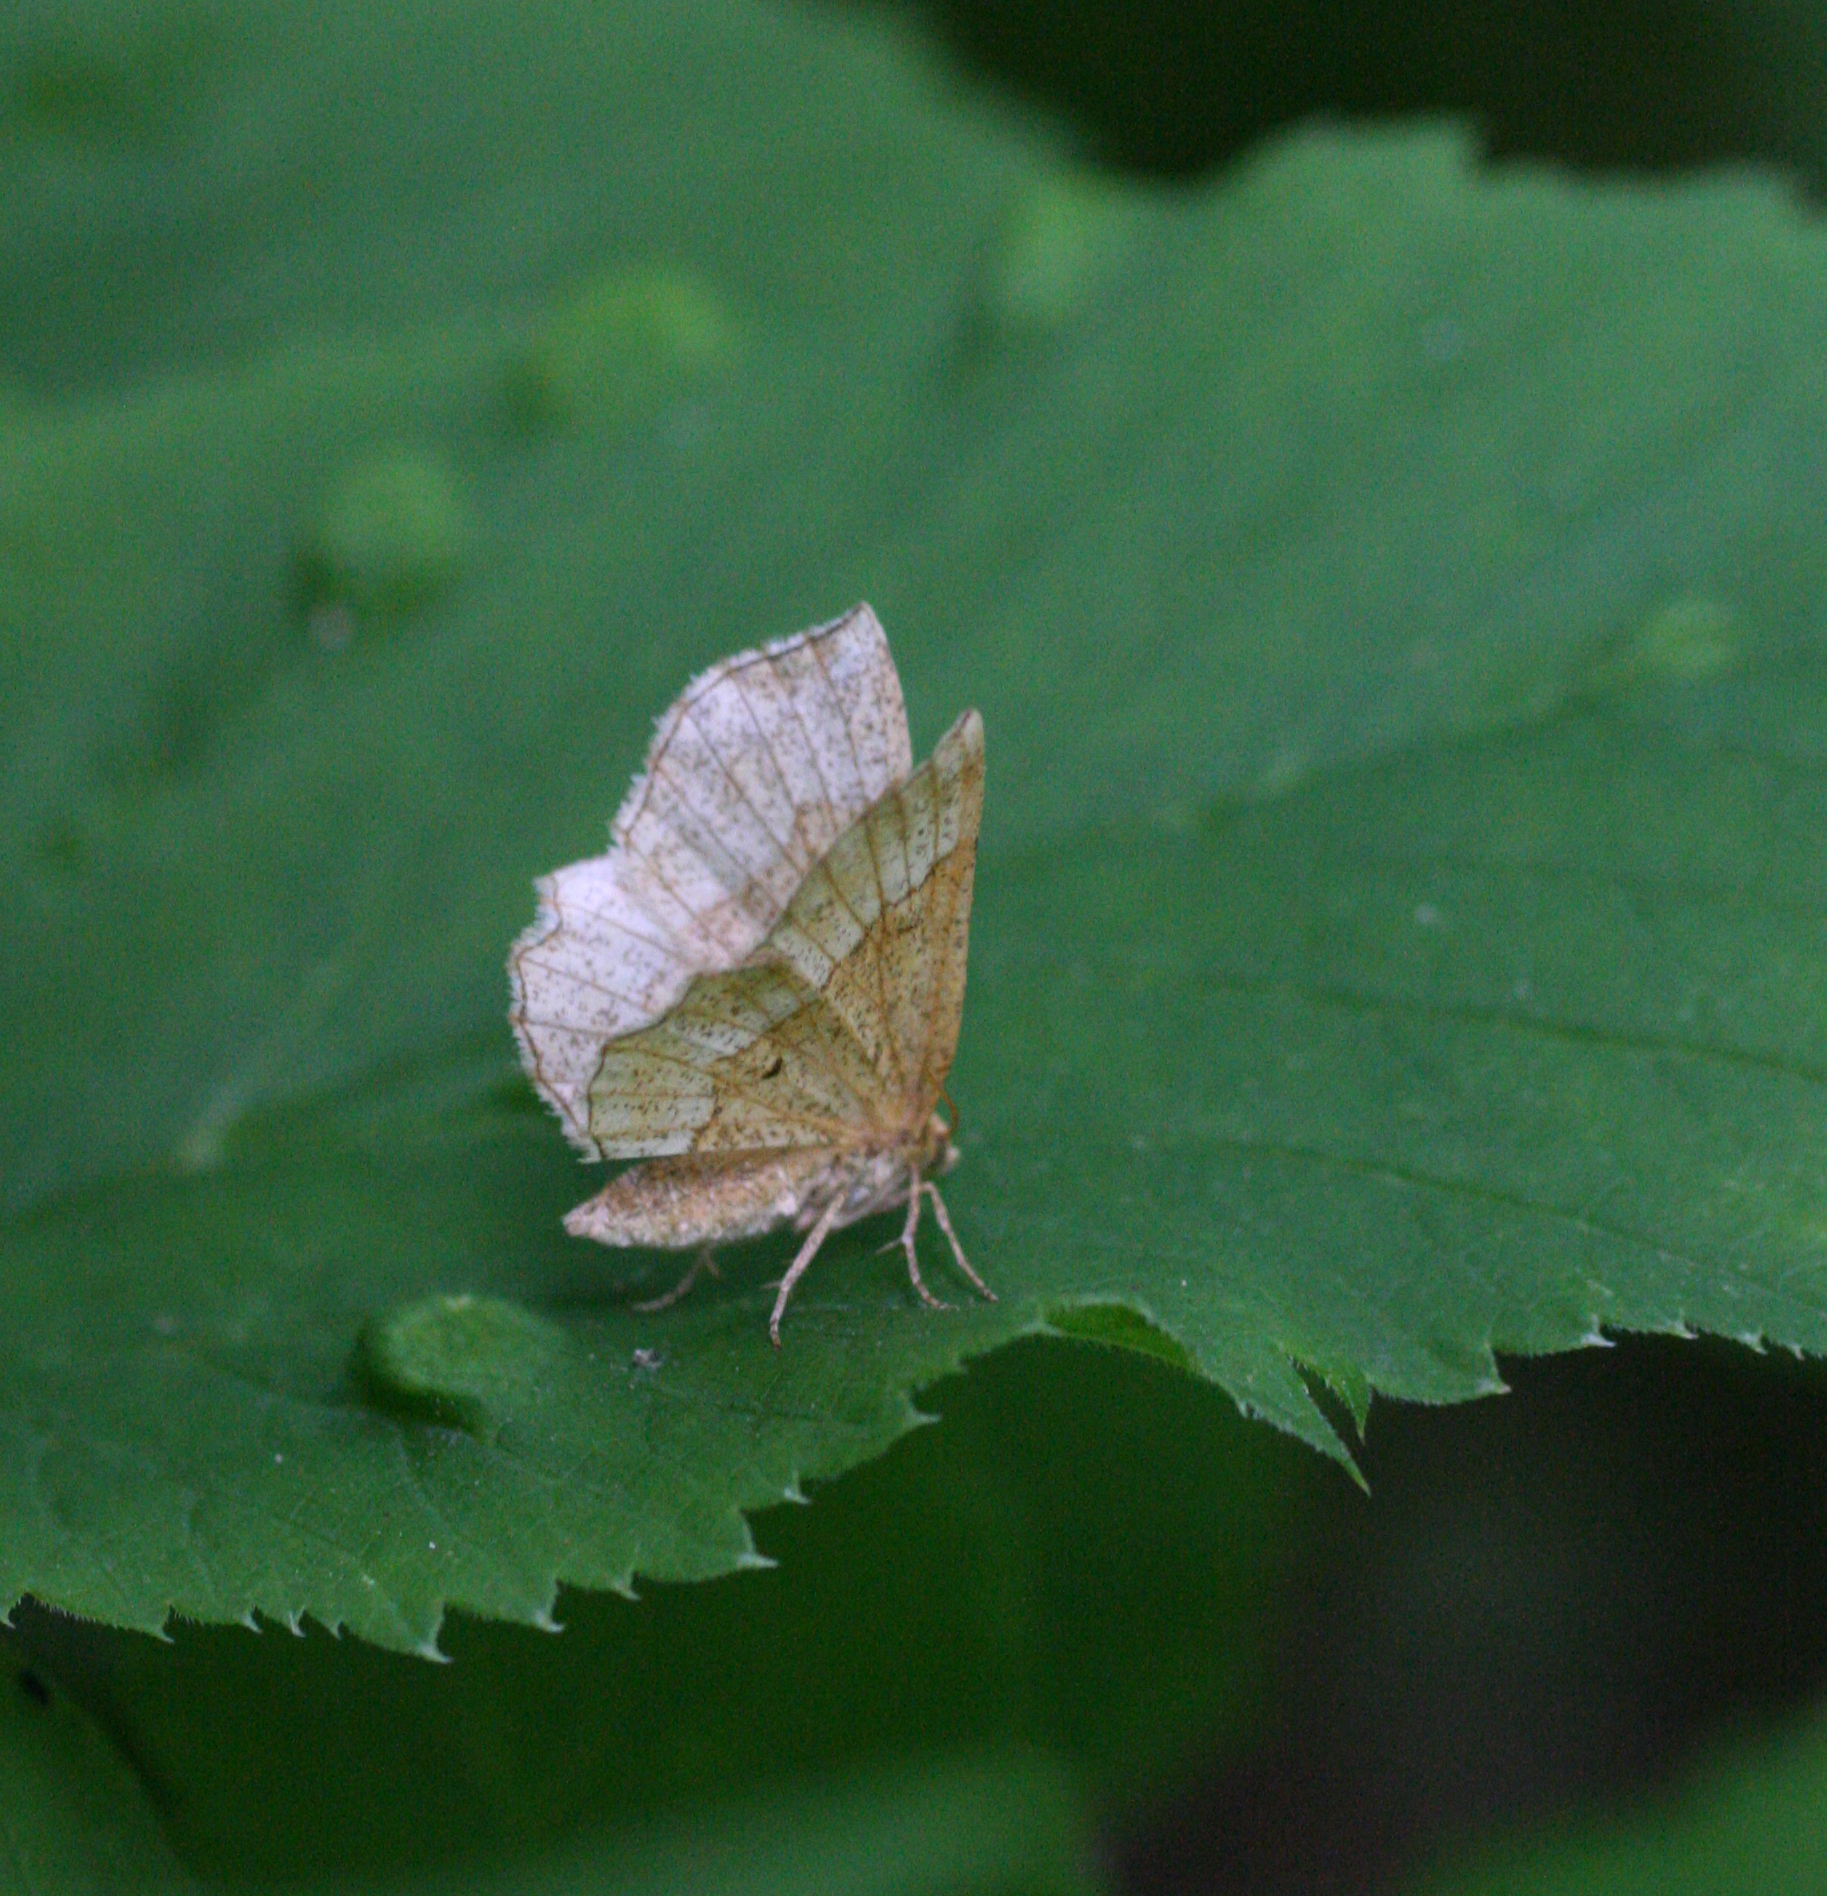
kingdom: Animalia
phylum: Arthropoda
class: Insecta
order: Lepidoptera
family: Geometridae
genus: Cepphis
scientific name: Cepphis advenaria
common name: Little thorn
